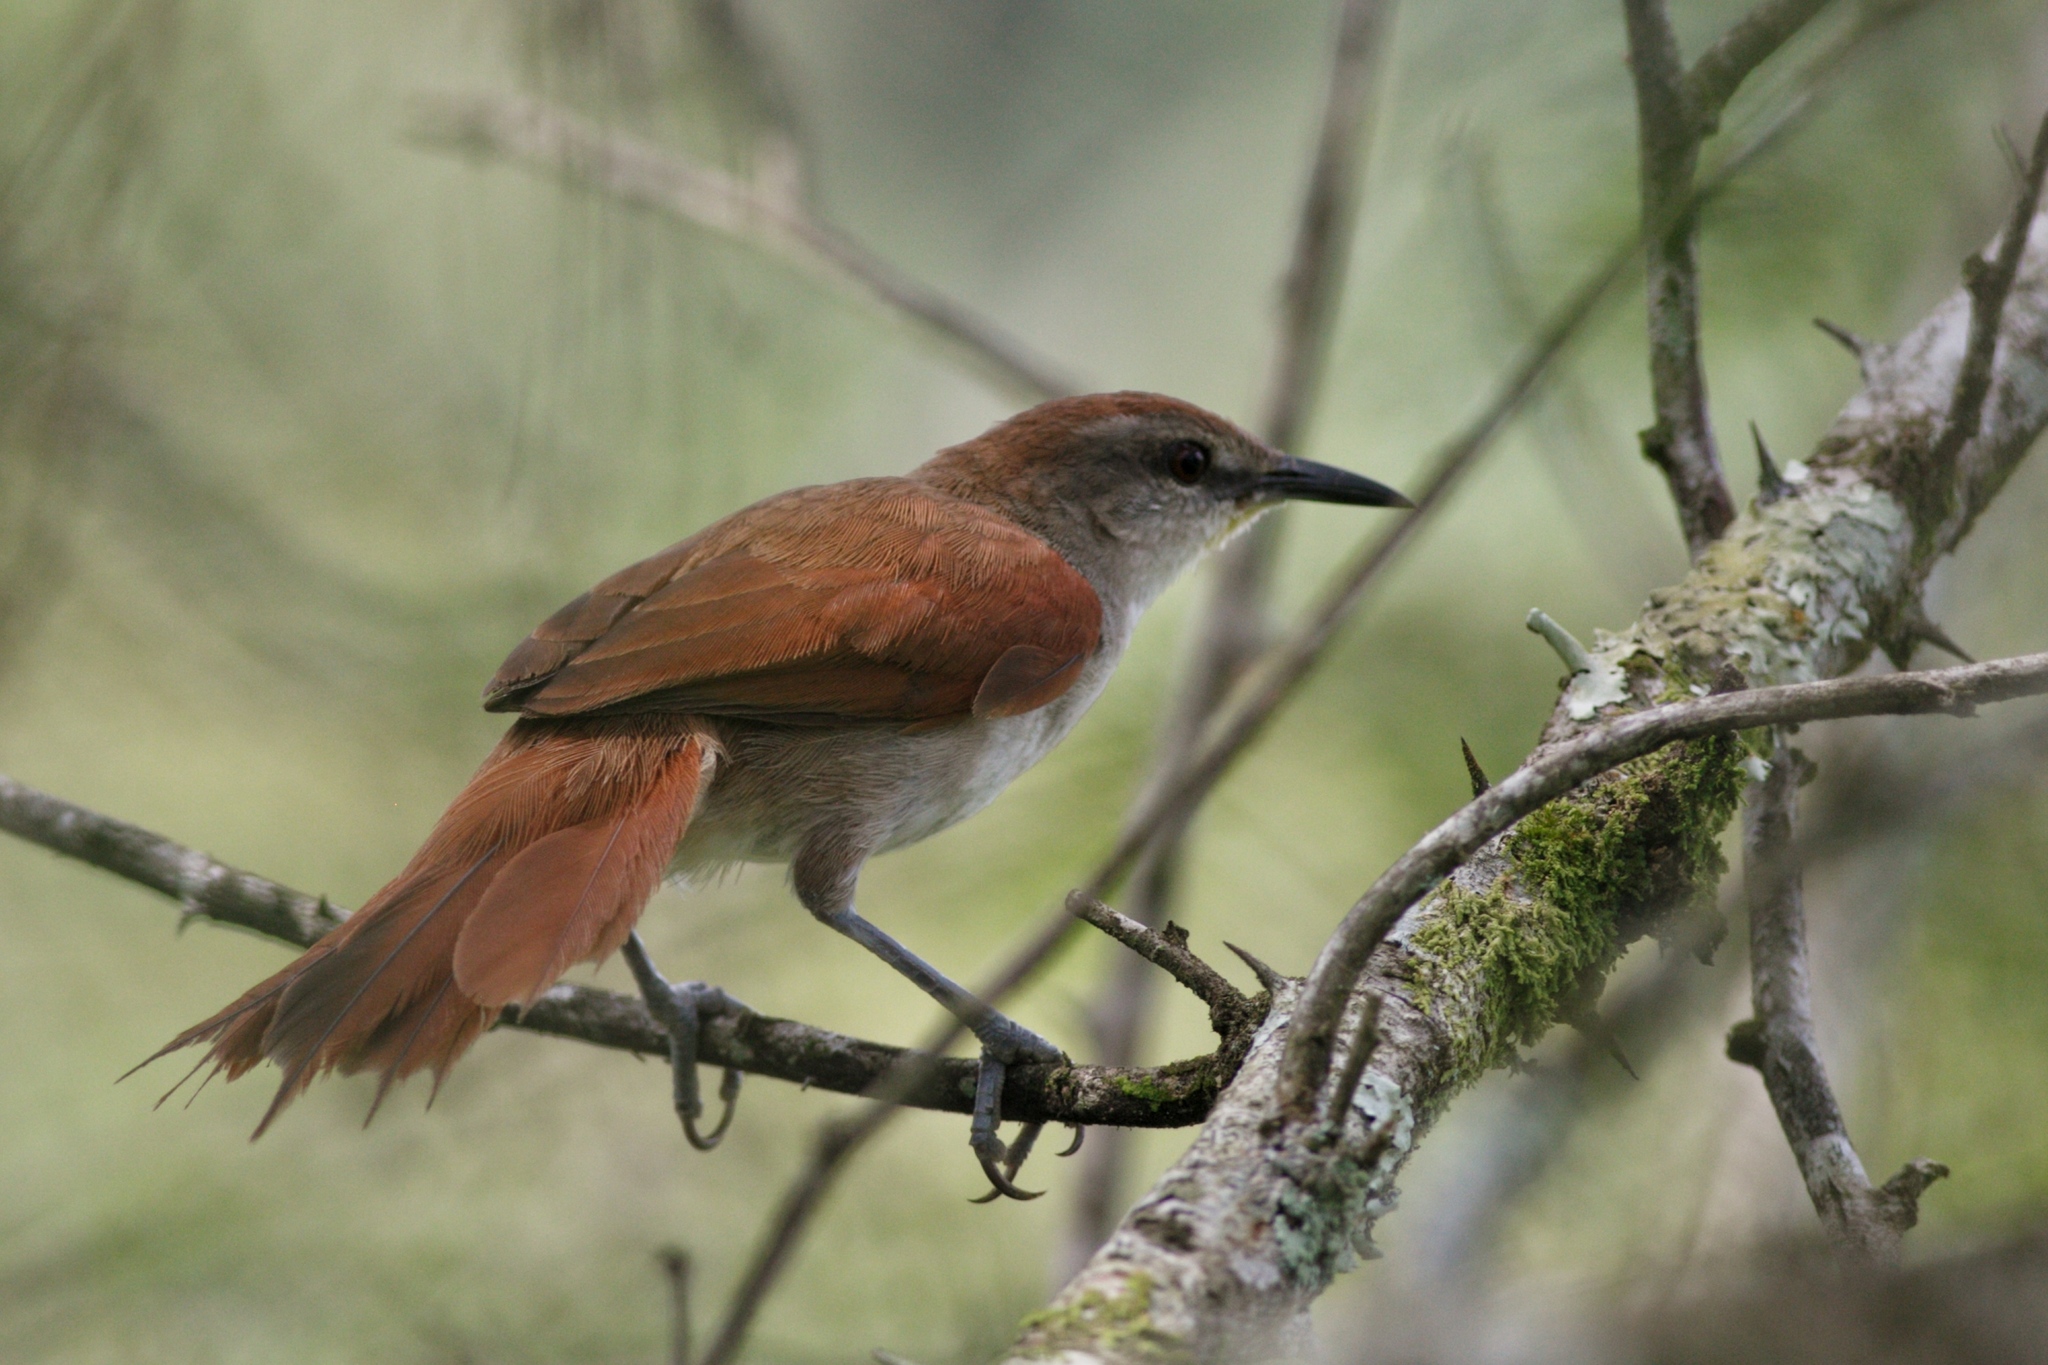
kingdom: Animalia
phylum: Chordata
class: Aves
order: Passeriformes
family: Furnariidae
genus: Certhiaxis
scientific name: Certhiaxis cinnamomeus
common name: Yellow-chinned spinetail
